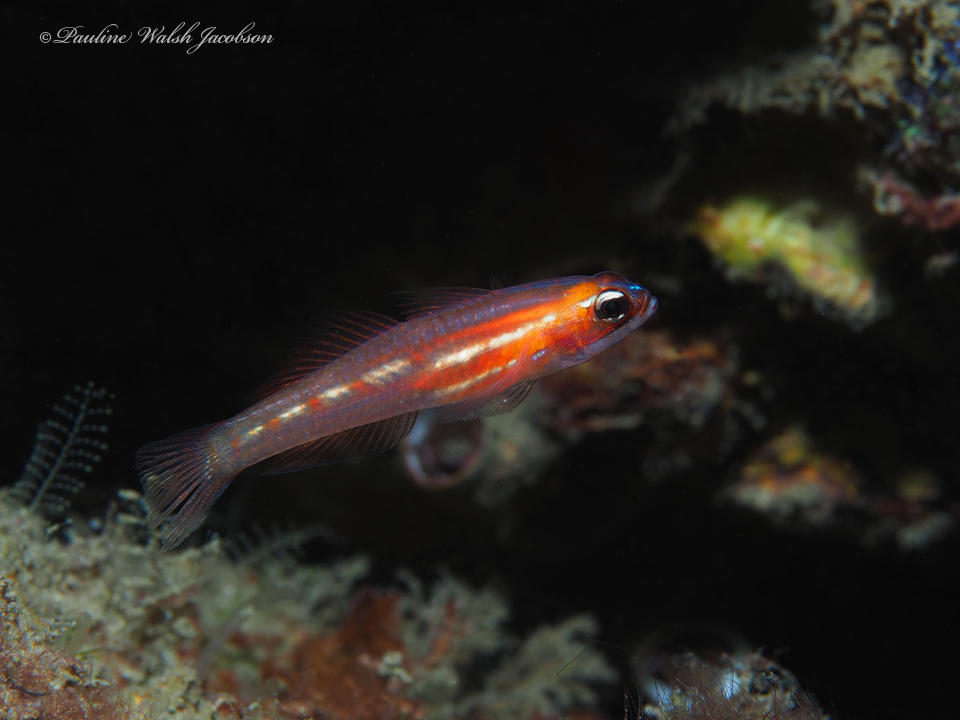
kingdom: Animalia
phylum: Chordata
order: Perciformes
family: Gobiidae
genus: Coryphopterus
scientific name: Coryphopterus personatus
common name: Masked goby
